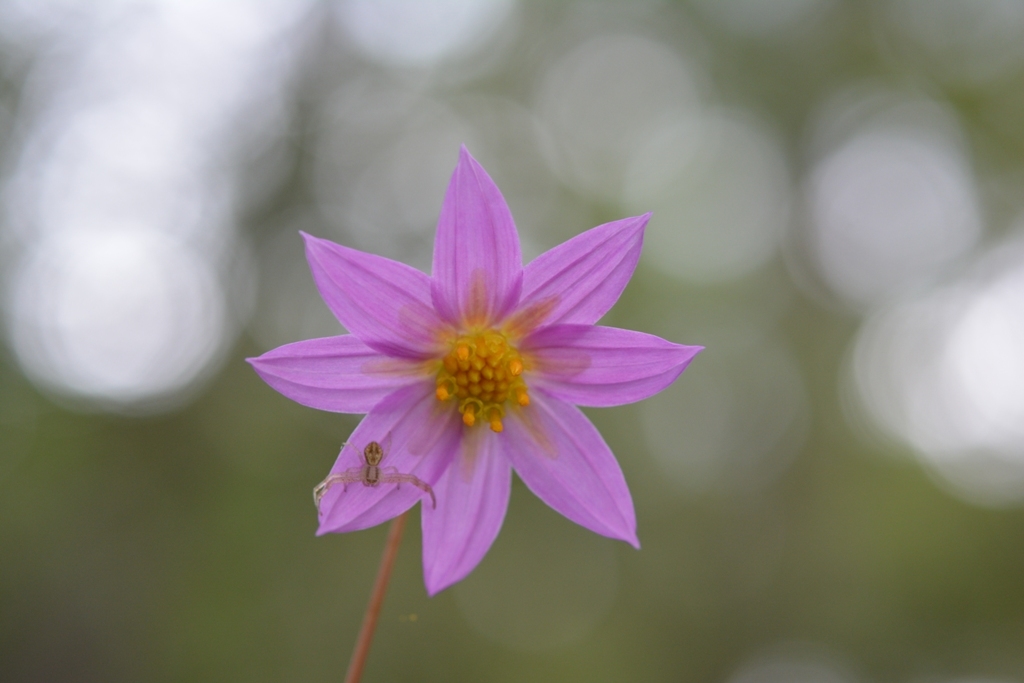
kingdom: Plantae
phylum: Tracheophyta
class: Magnoliopsida
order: Asterales
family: Asteraceae
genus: Dahlia
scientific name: Dahlia australis
